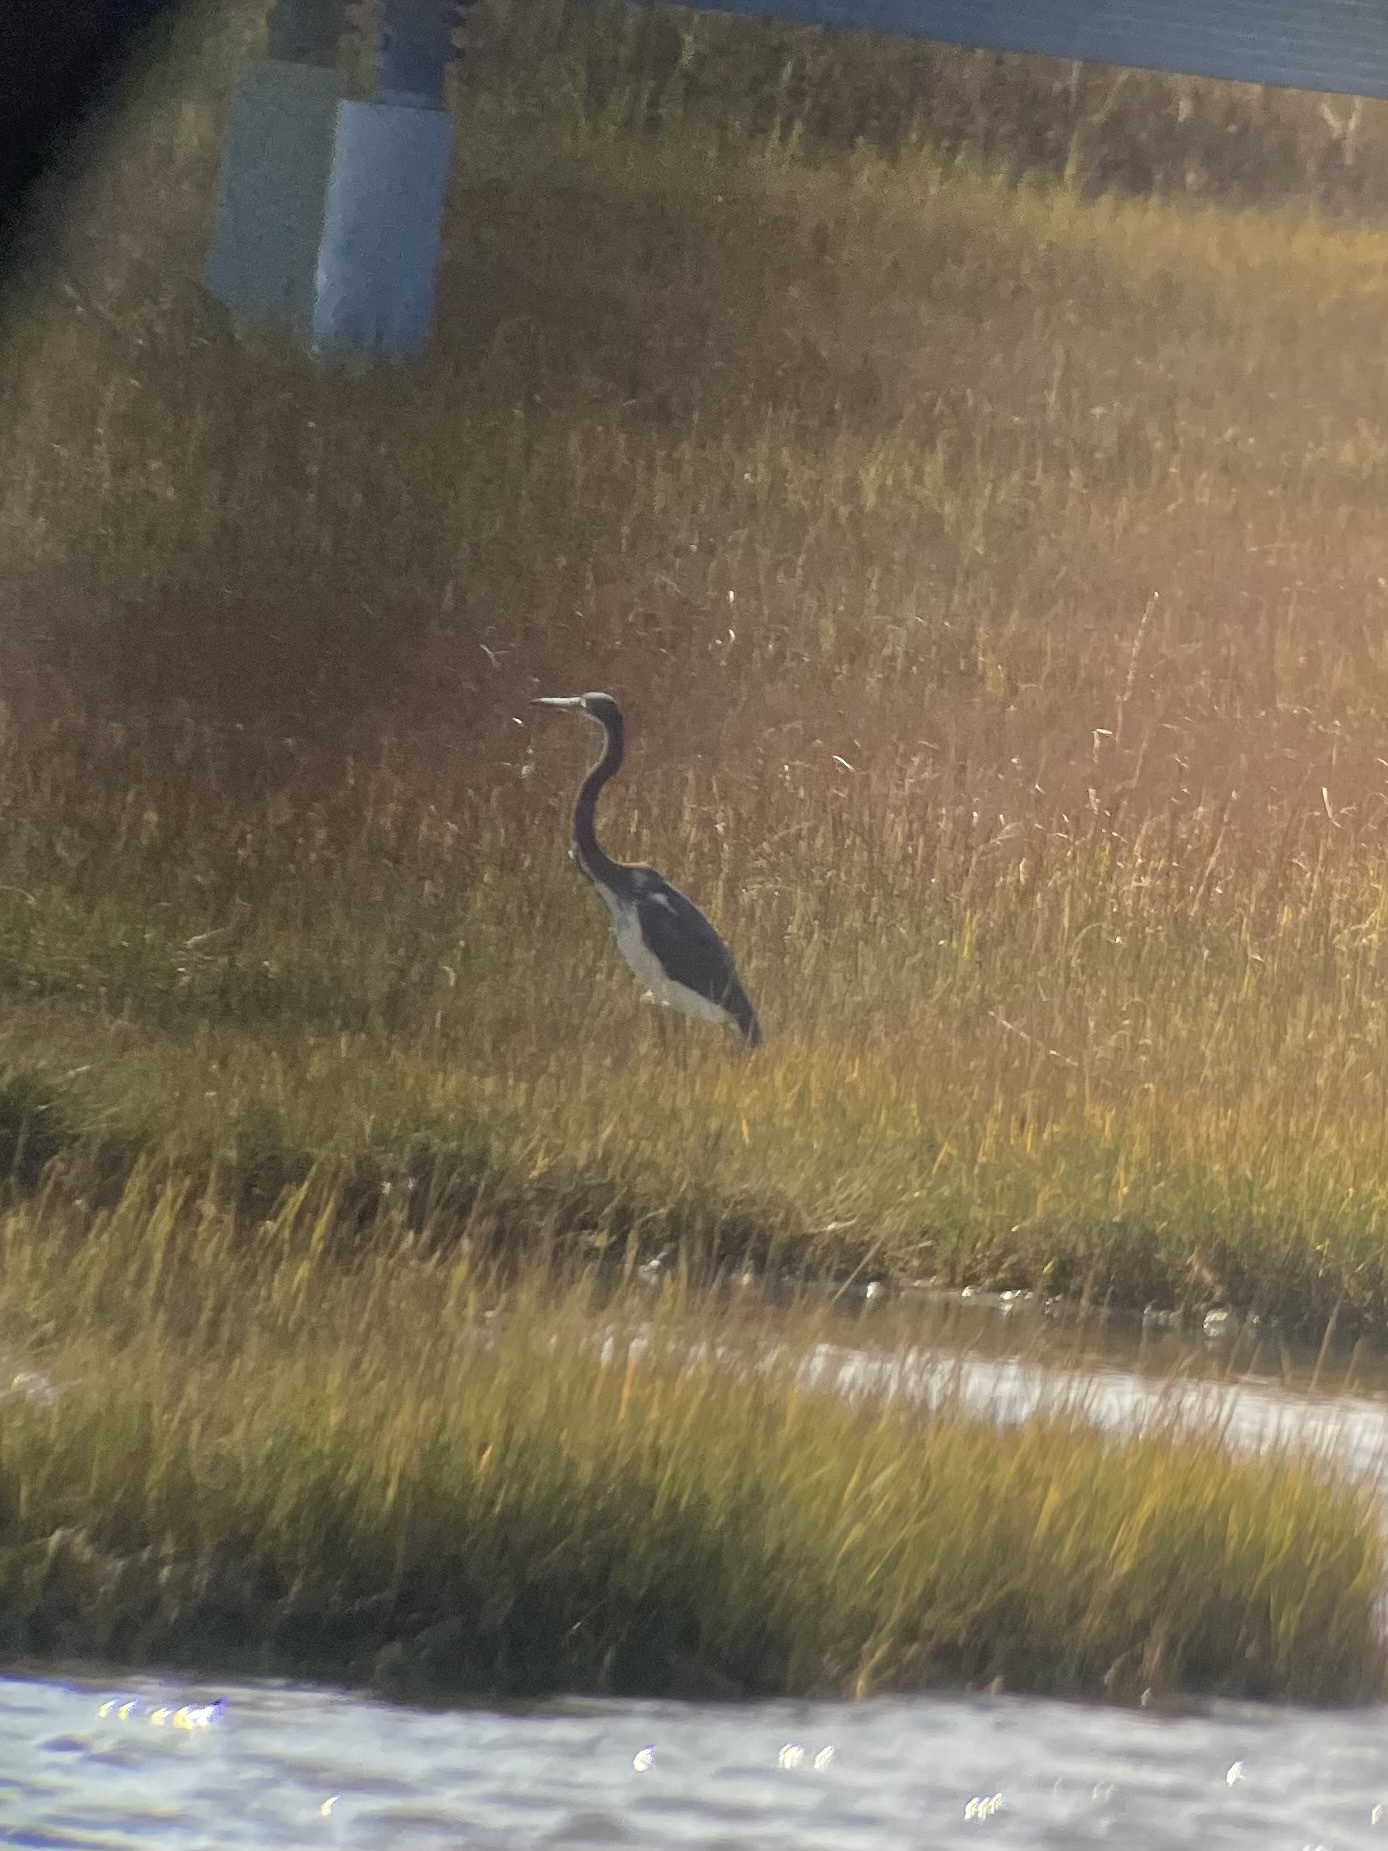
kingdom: Animalia
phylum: Chordata
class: Aves
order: Pelecaniformes
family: Ardeidae
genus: Egretta
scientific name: Egretta tricolor
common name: Tricolored heron
